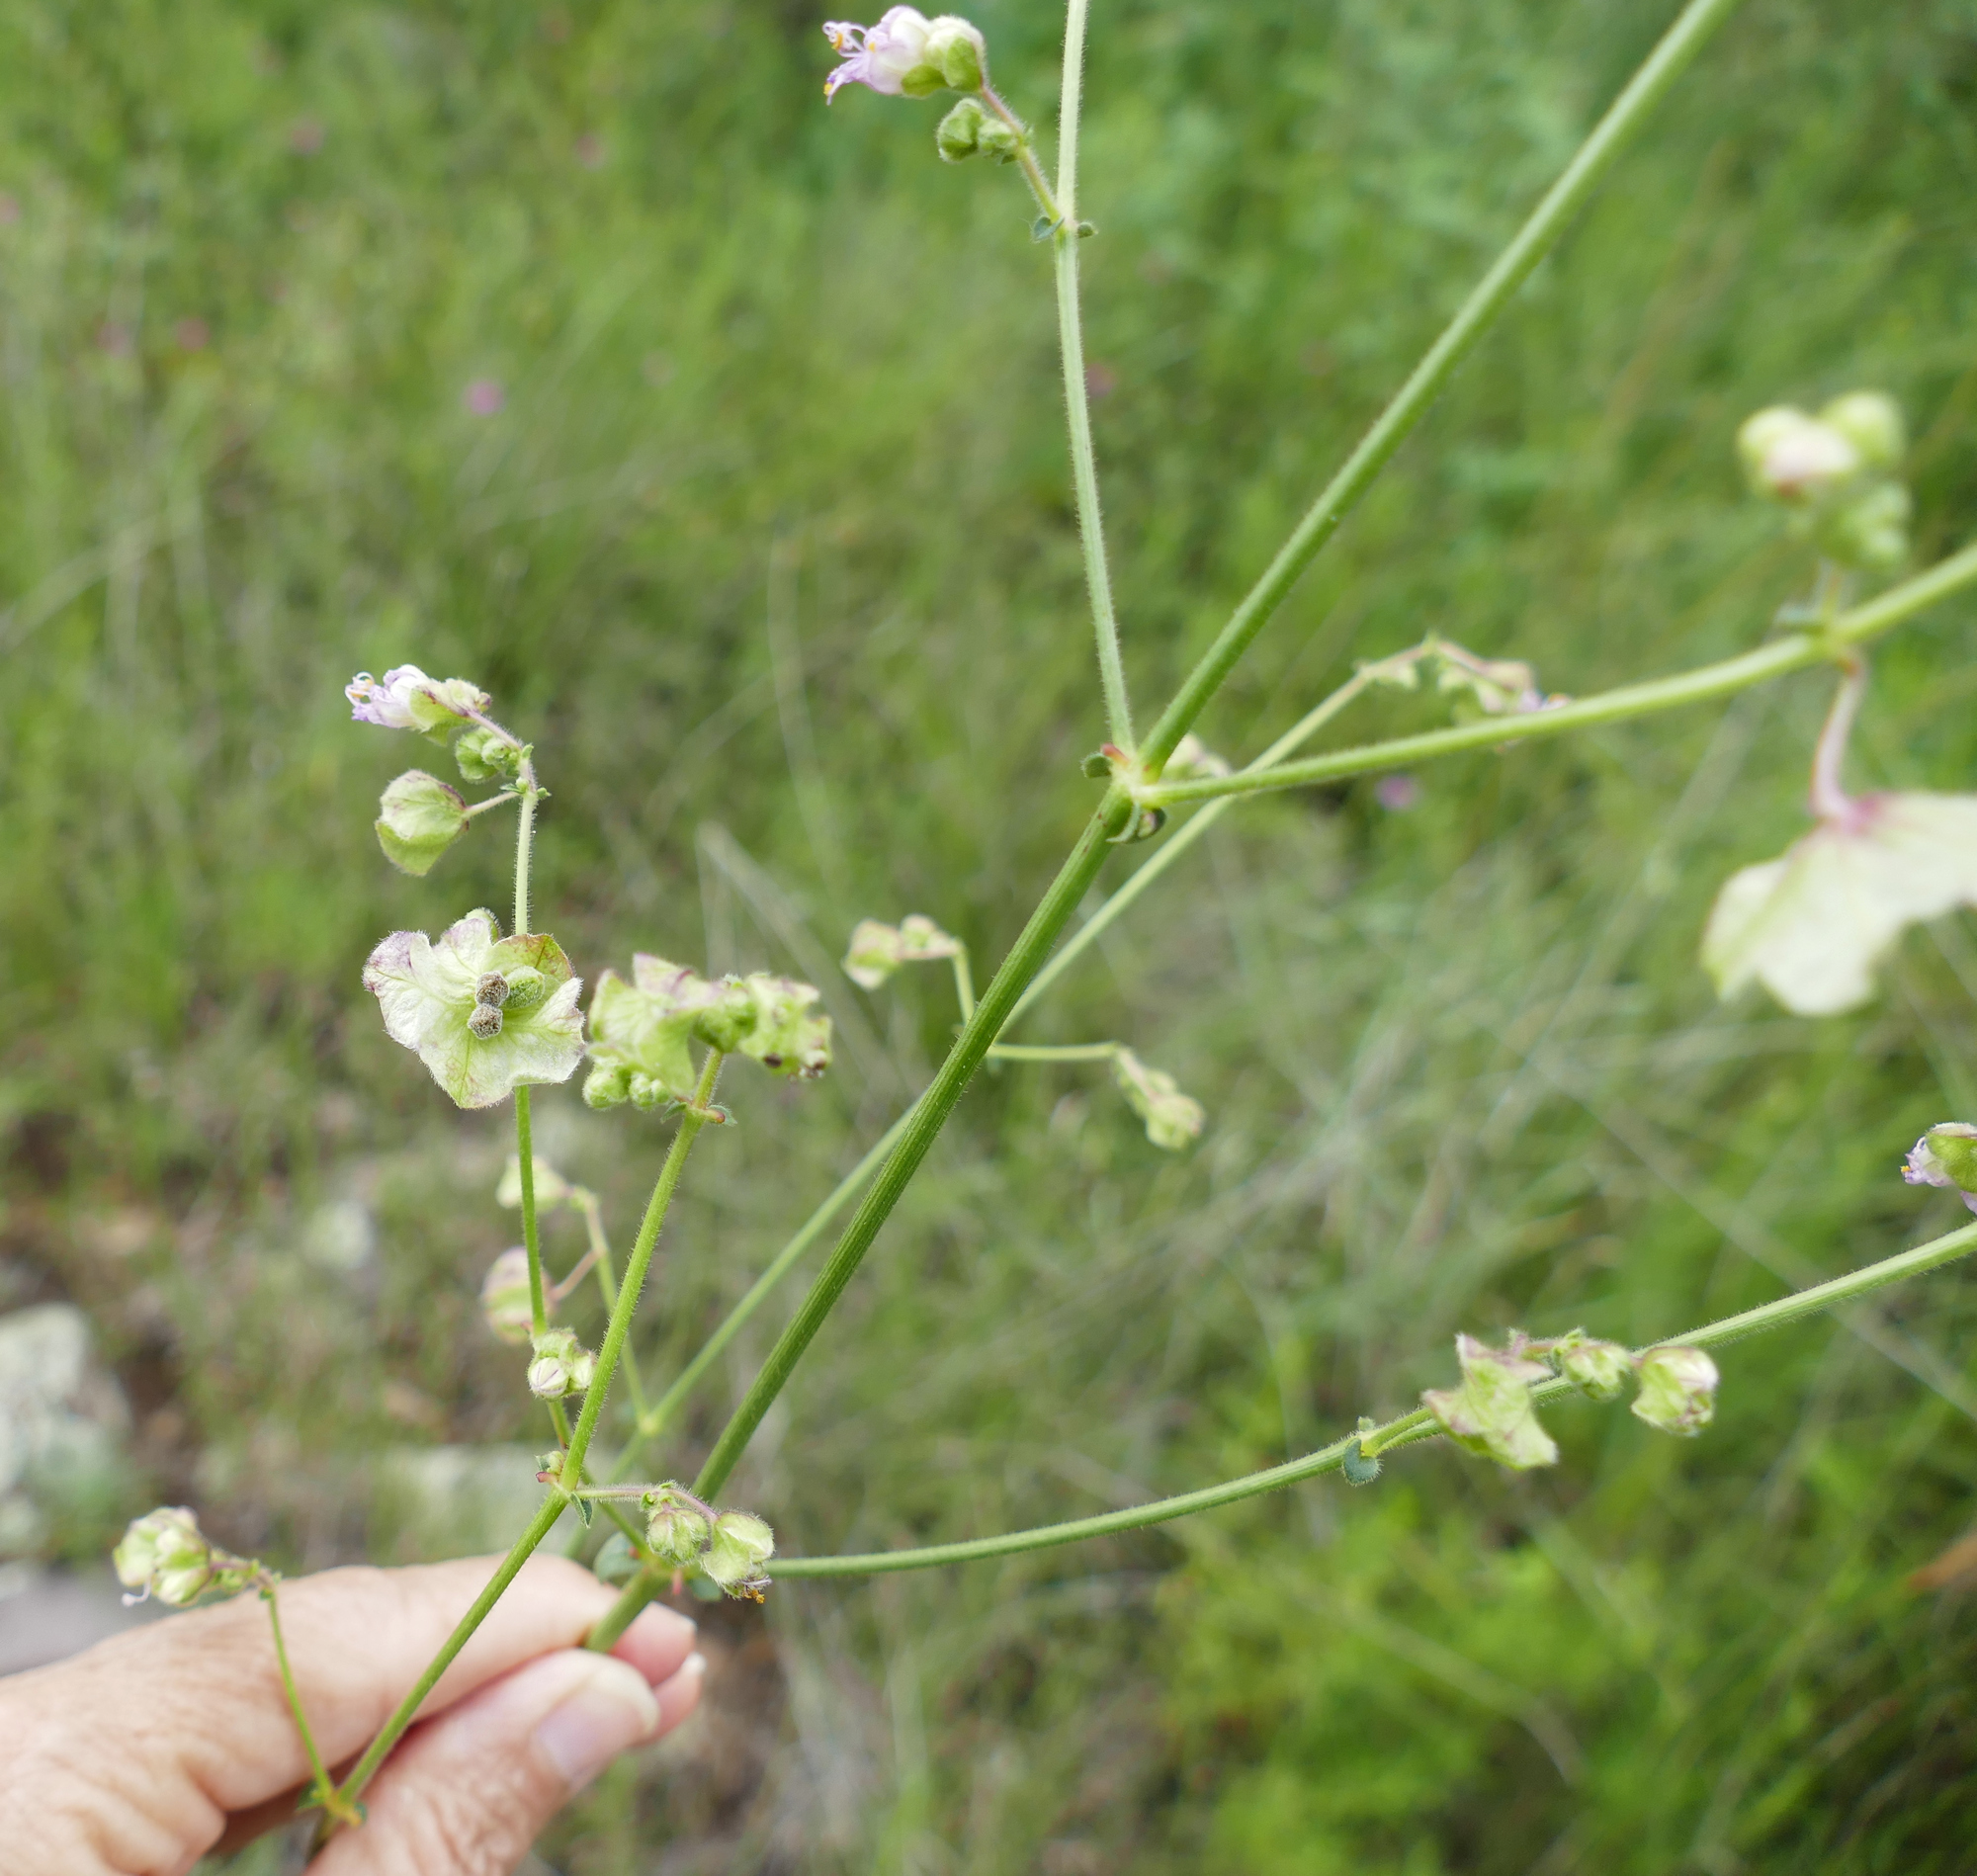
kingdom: Plantae
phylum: Tracheophyta
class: Magnoliopsida
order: Caryophyllales
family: Nyctaginaceae
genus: Mirabilis
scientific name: Mirabilis linearis
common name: Linear-leaved four-o'clock
